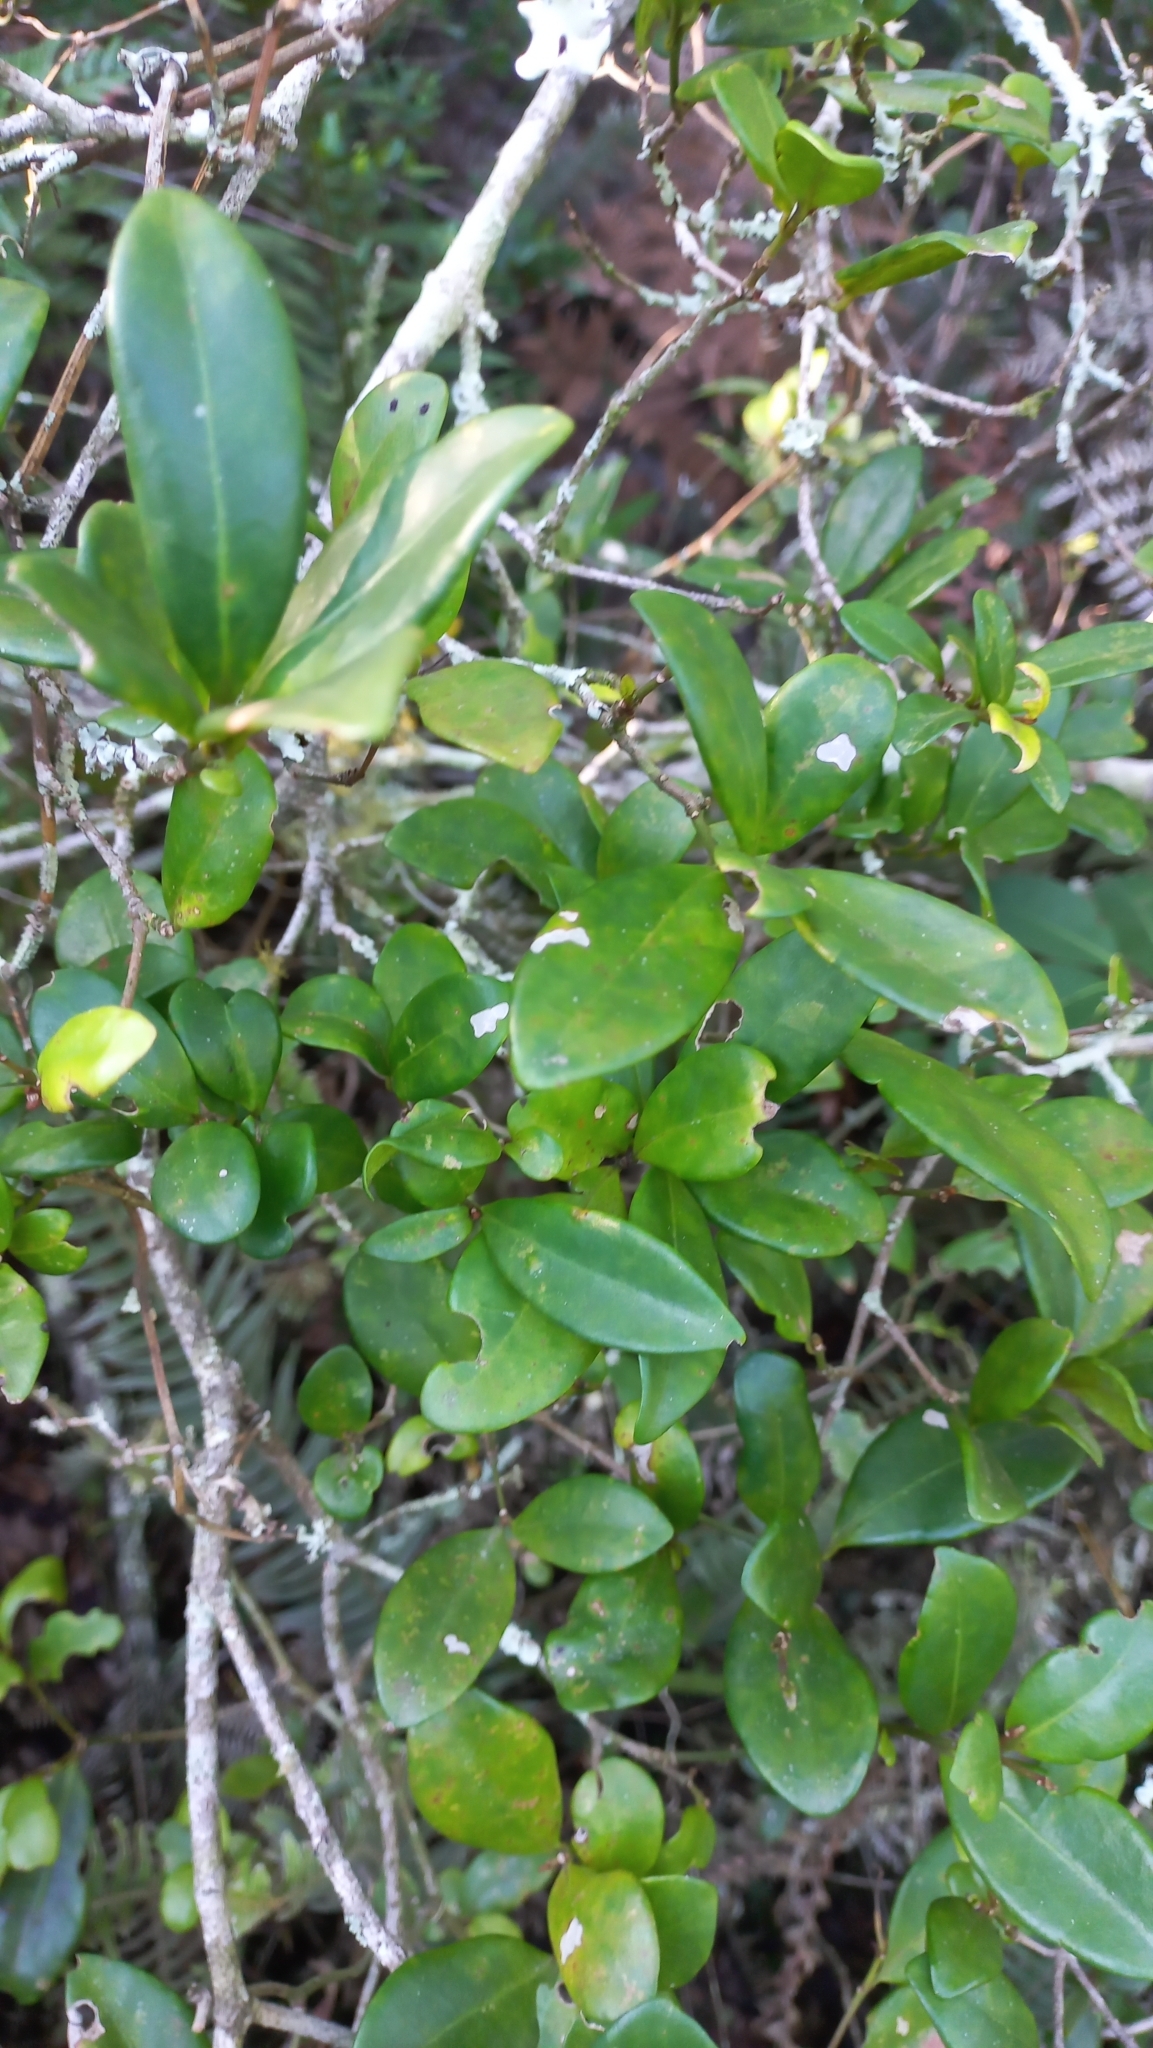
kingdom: Plantae
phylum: Tracheophyta
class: Magnoliopsida
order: Caryophyllales
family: Nyctaginaceae
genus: Guapira
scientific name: Guapira opposita
